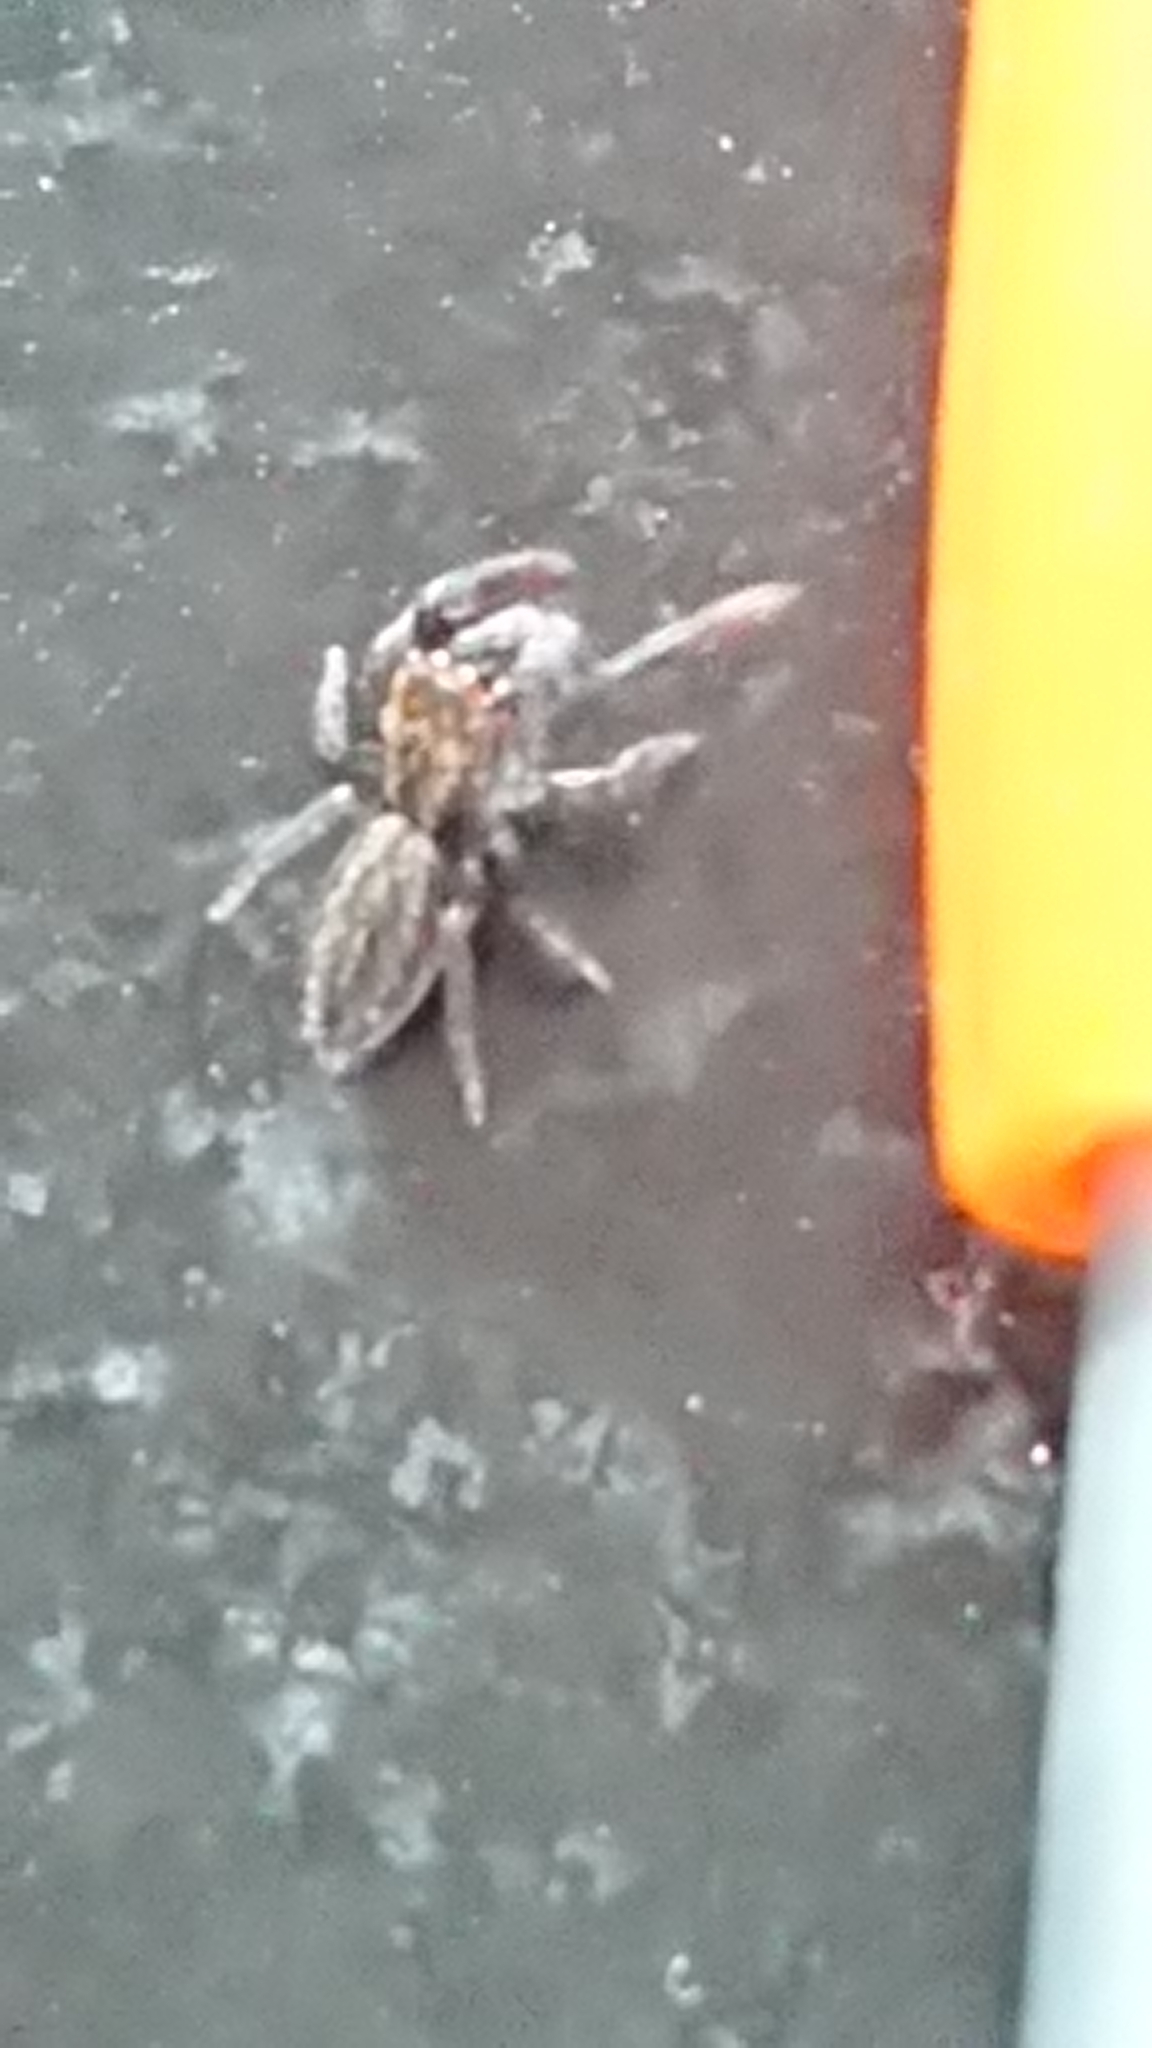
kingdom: Animalia
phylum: Arthropoda
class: Arachnida
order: Araneae
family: Salticidae
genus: Trite
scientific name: Trite auricoma
